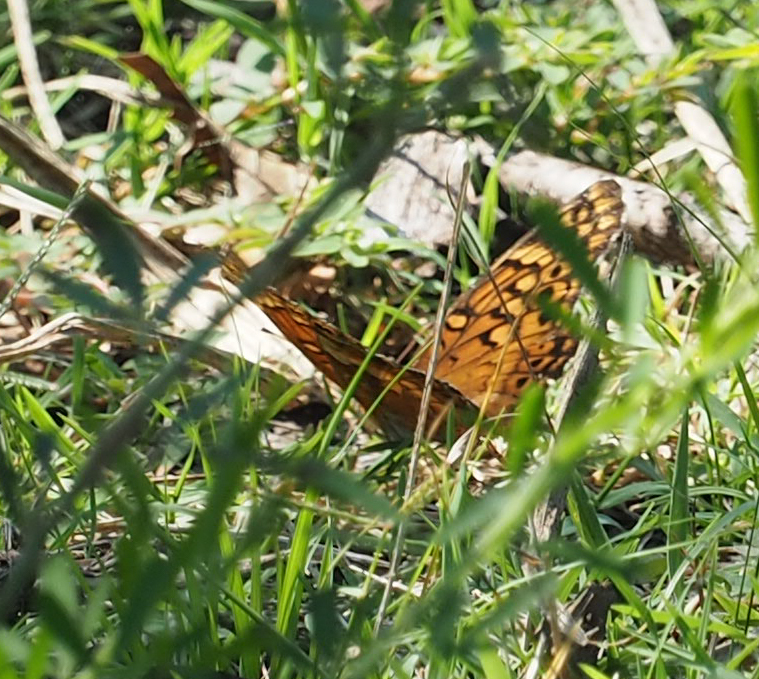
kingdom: Animalia
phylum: Arthropoda
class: Insecta
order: Lepidoptera
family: Nymphalidae
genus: Euptoieta
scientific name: Euptoieta claudia
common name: Variegated fritillary
